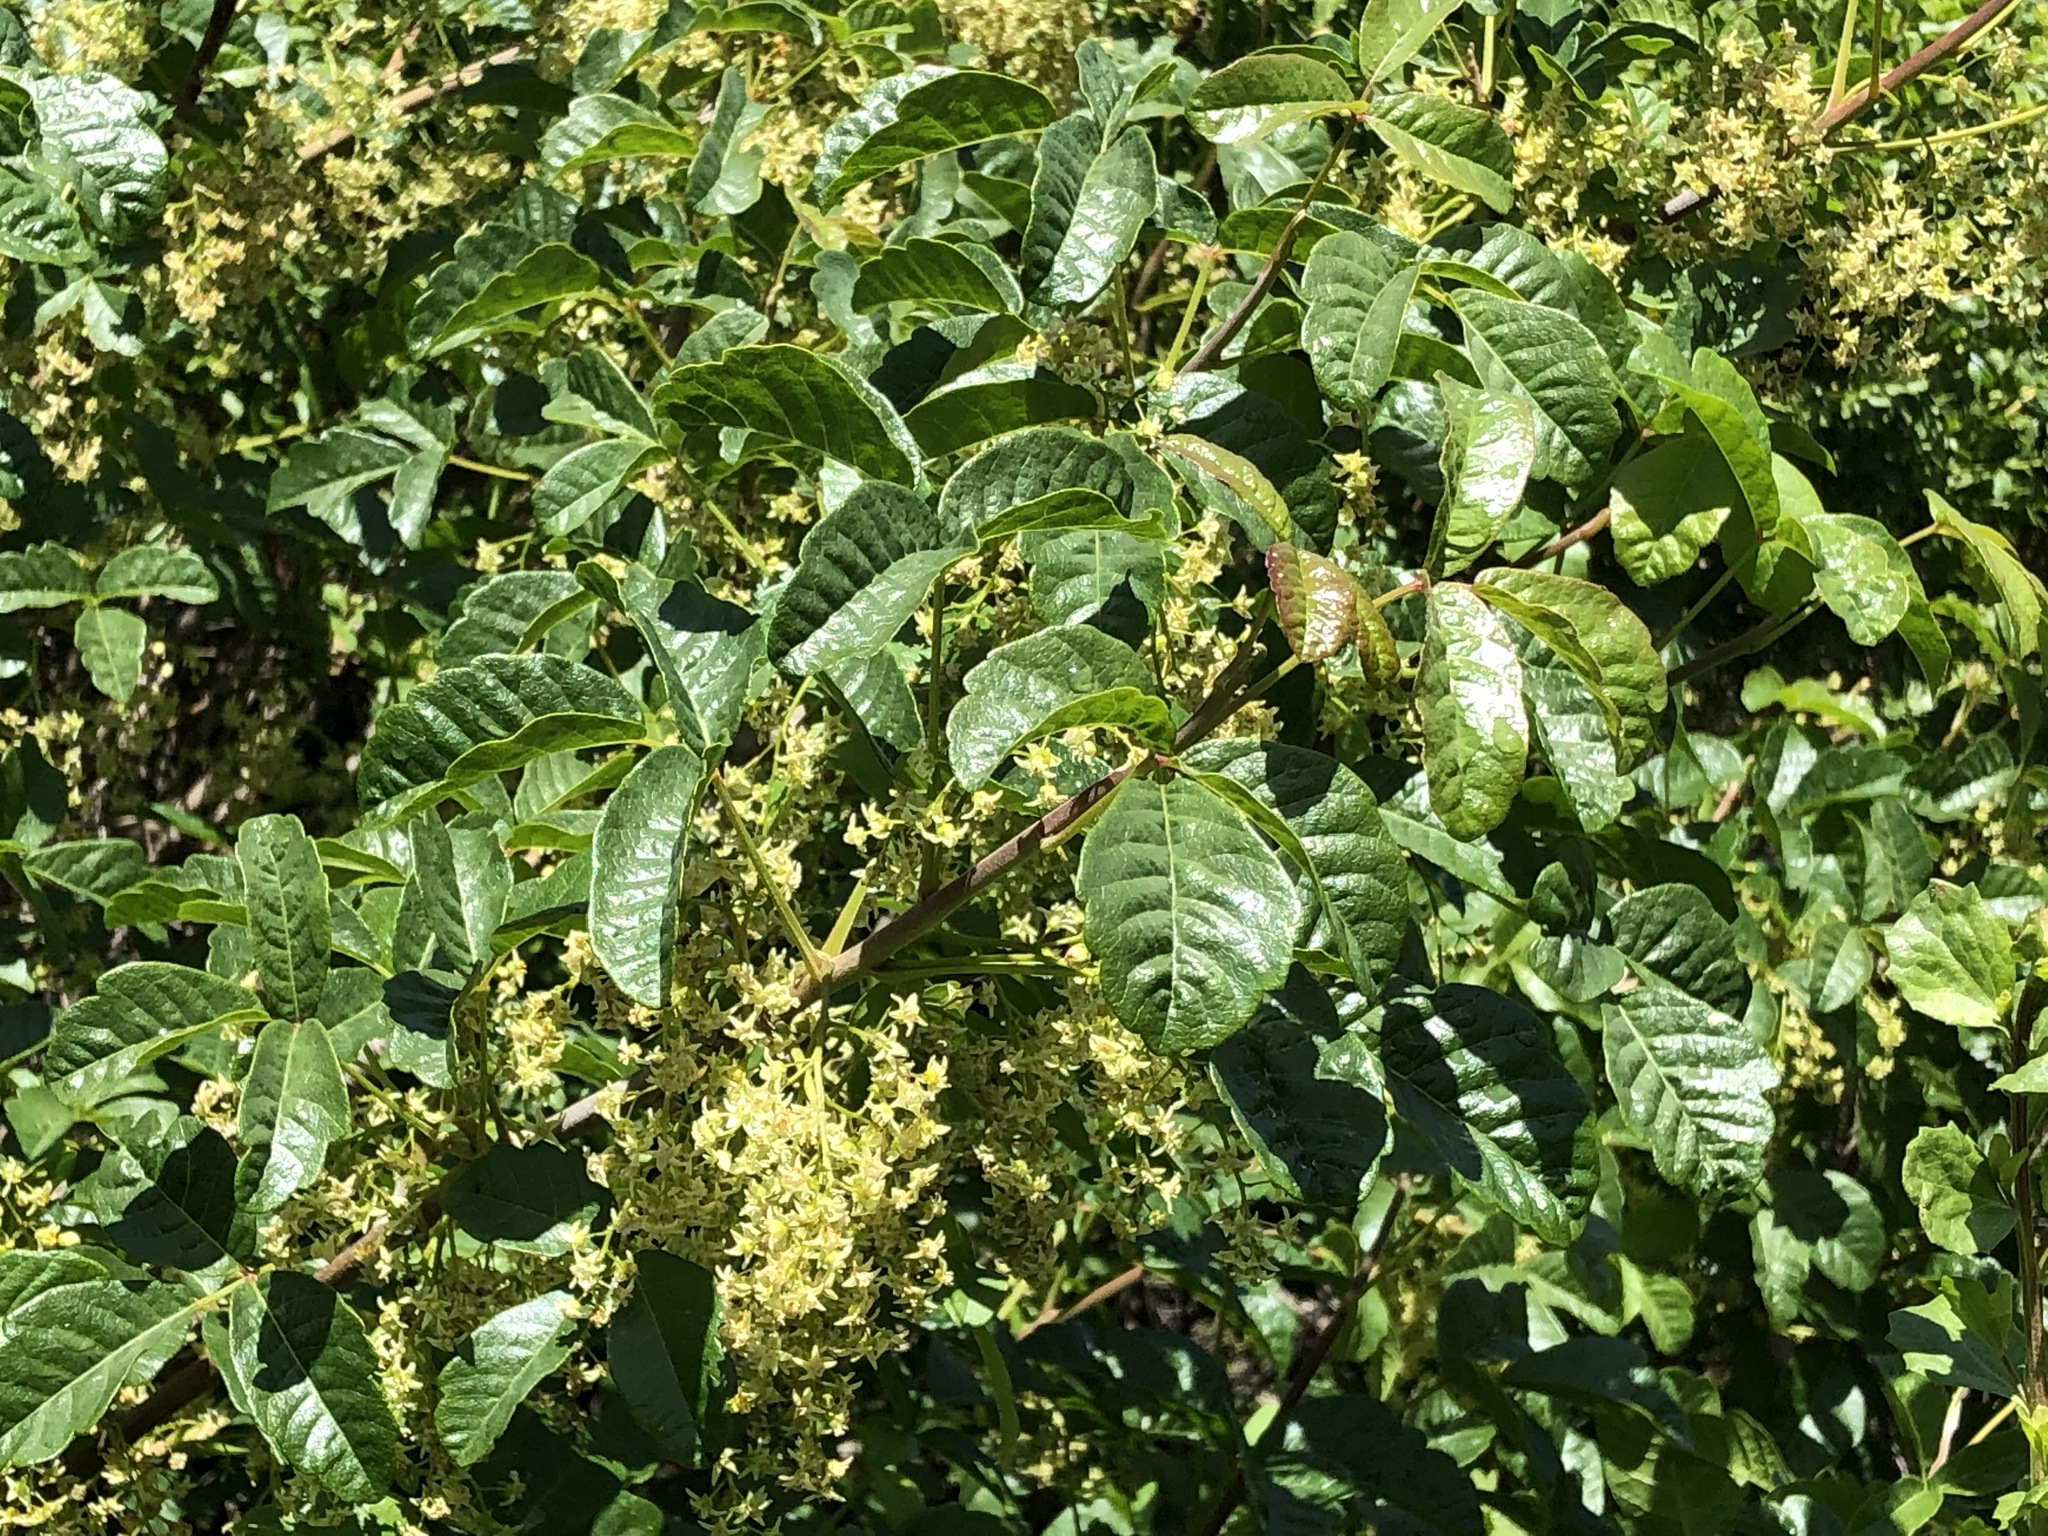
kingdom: Plantae
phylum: Tracheophyta
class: Magnoliopsida
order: Sapindales
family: Anacardiaceae
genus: Toxicodendron
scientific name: Toxicodendron diversilobum
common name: Pacific poison-oak
